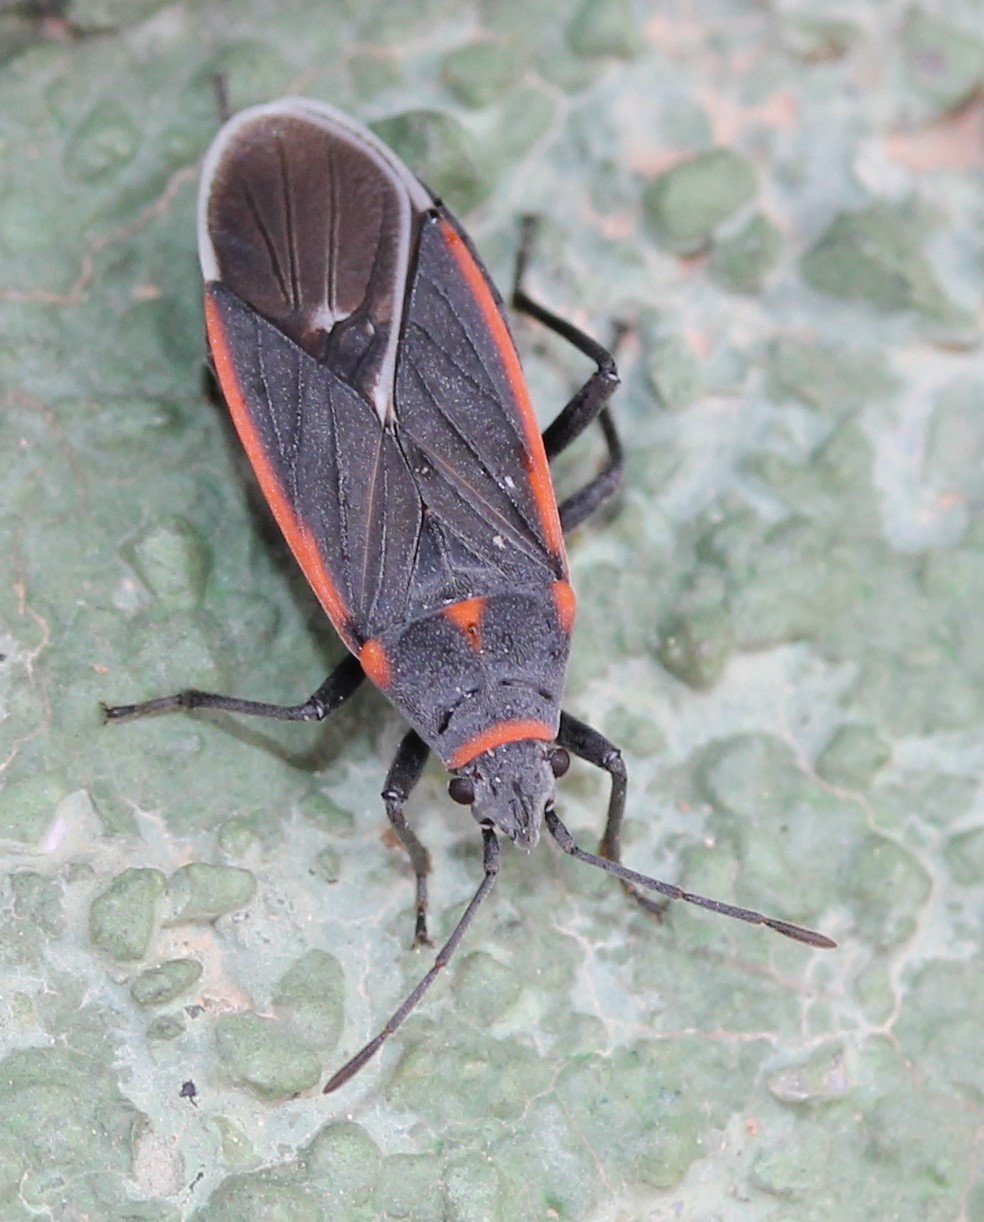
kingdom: Animalia
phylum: Arthropoda
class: Insecta
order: Hemiptera
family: Lygaeidae
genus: Melacoryphus
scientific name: Melacoryphus lateralis
